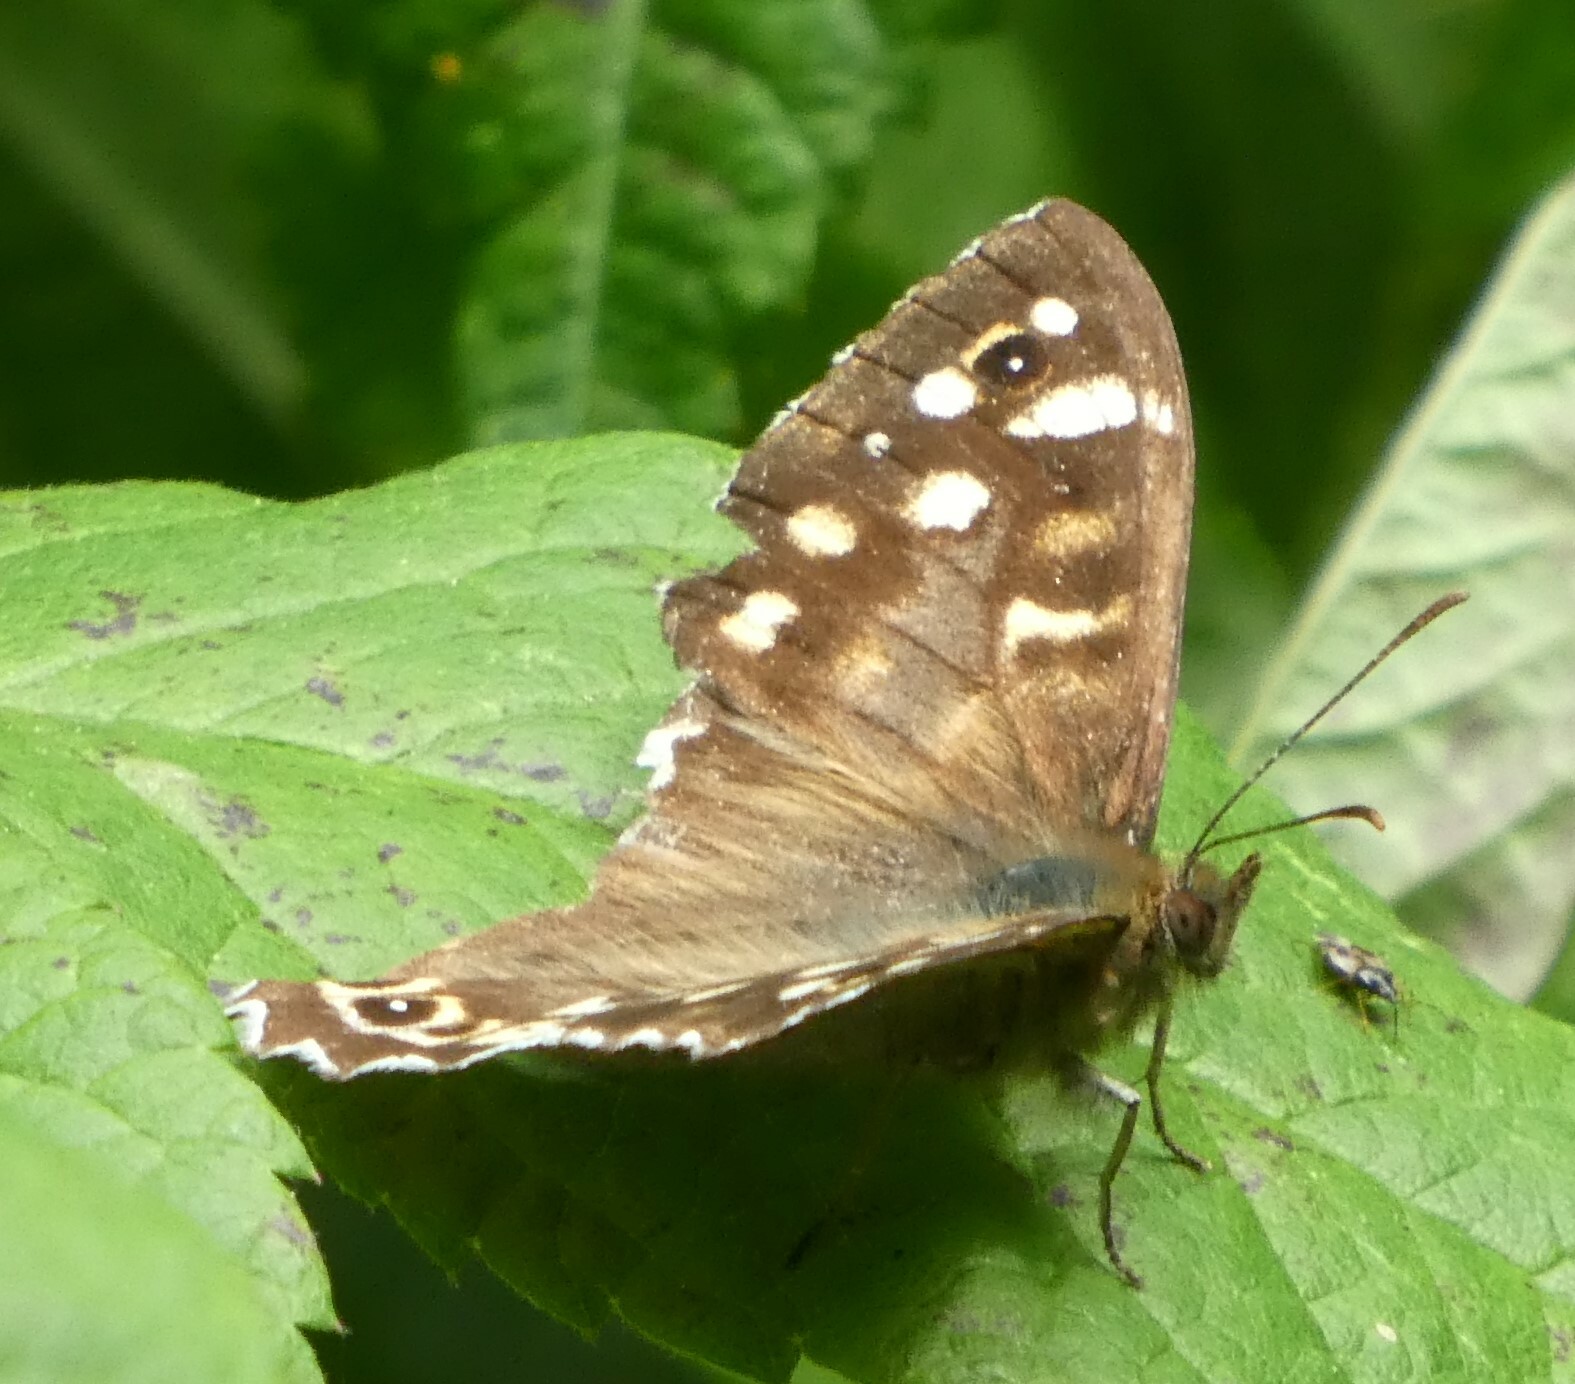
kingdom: Animalia
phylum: Arthropoda
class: Insecta
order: Lepidoptera
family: Nymphalidae
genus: Pararge
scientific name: Pararge aegeria
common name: Speckled wood
